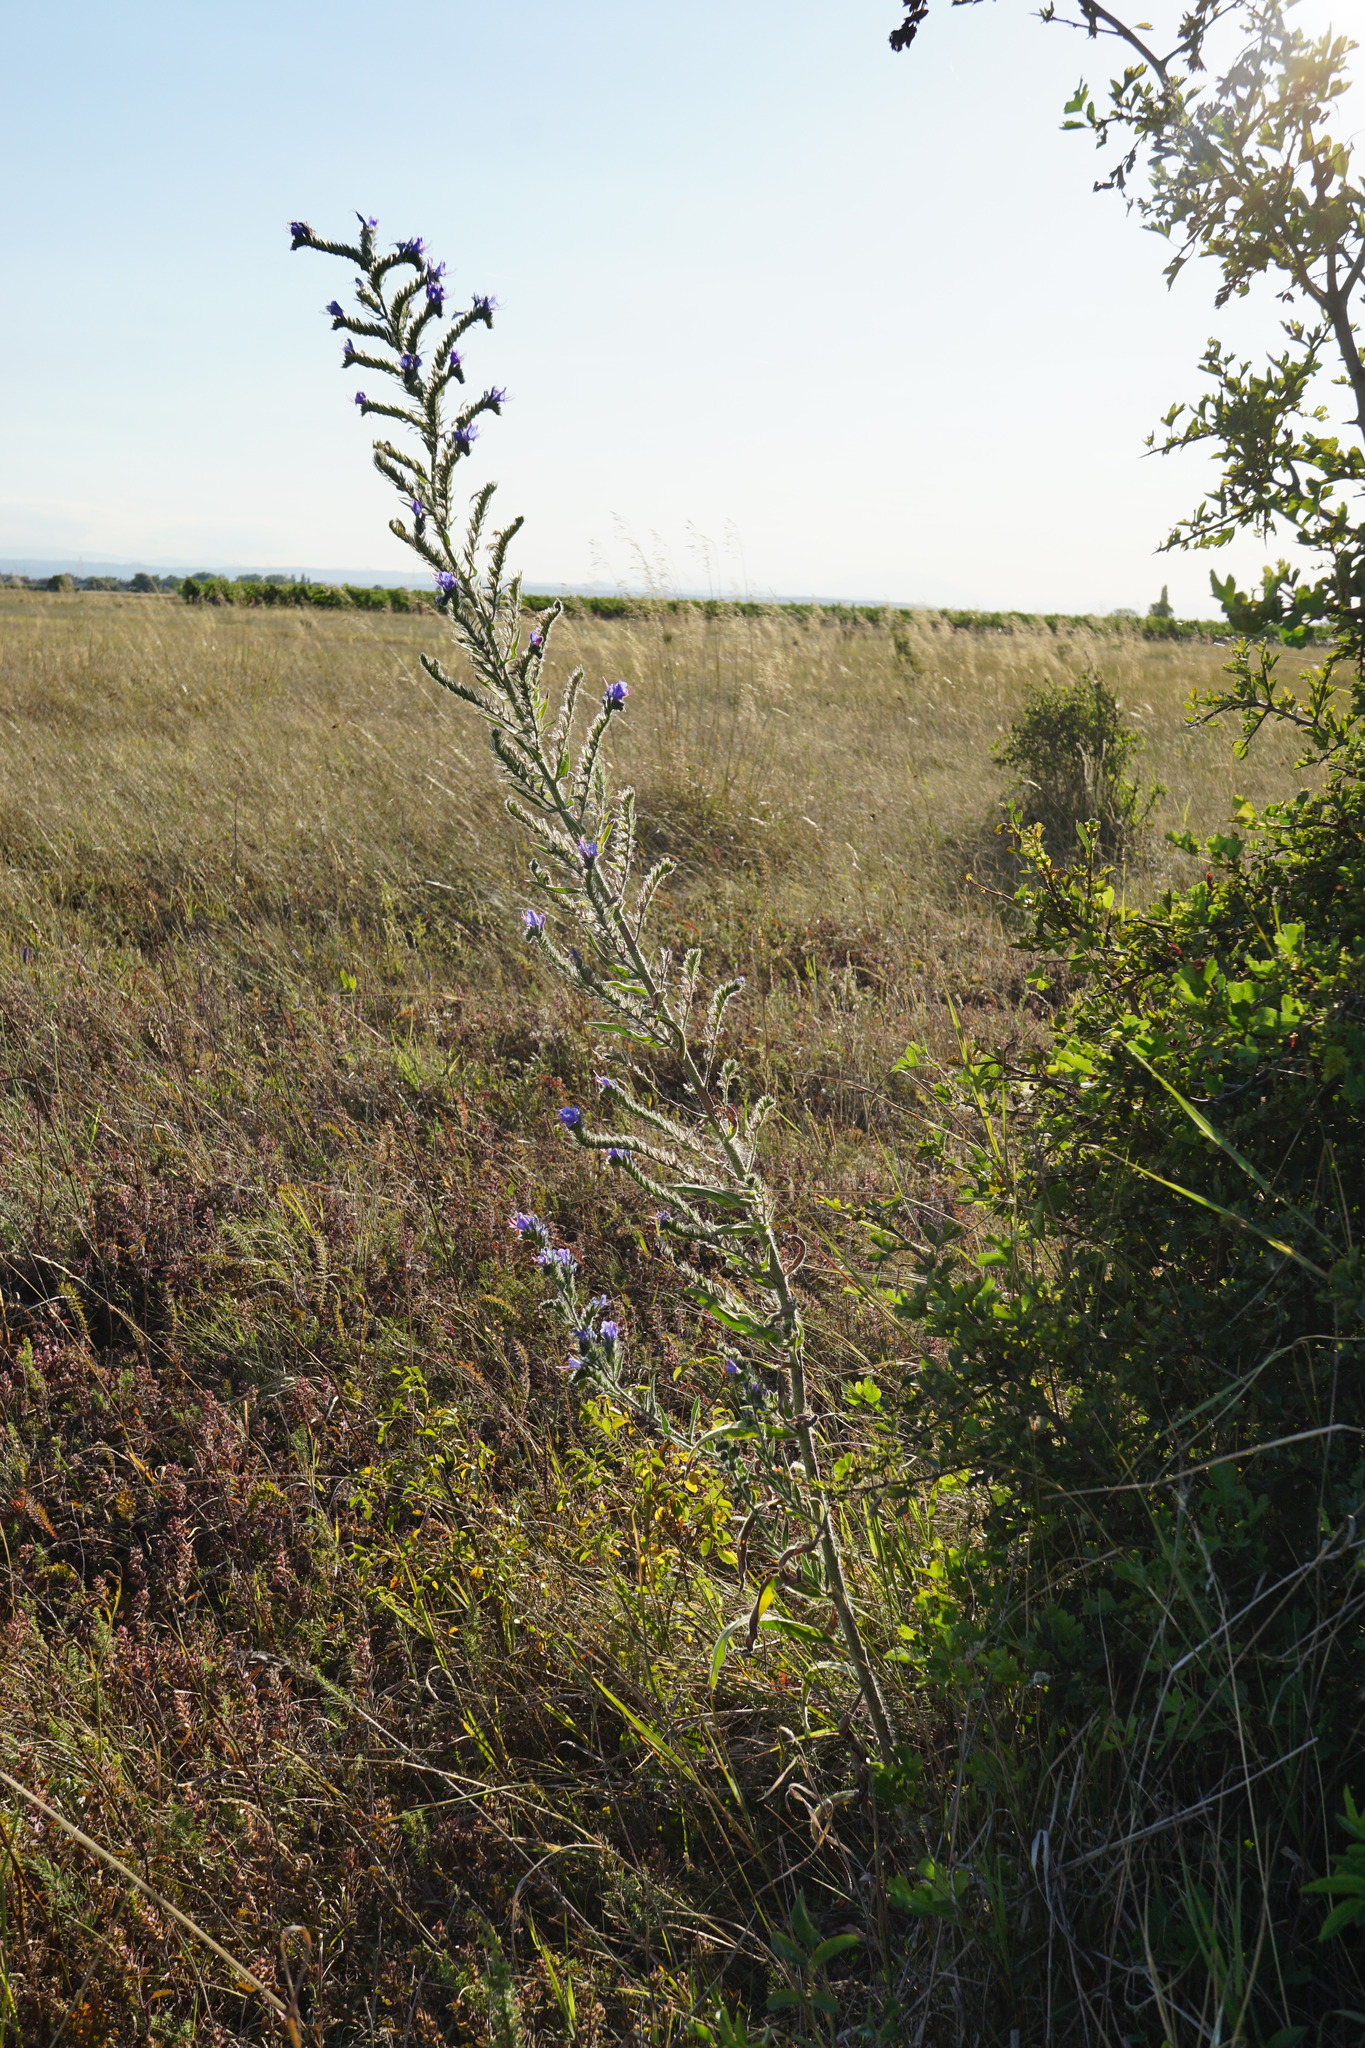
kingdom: Plantae
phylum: Tracheophyta
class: Magnoliopsida
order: Boraginales
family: Boraginaceae
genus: Echium
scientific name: Echium vulgare
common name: Common viper's bugloss
